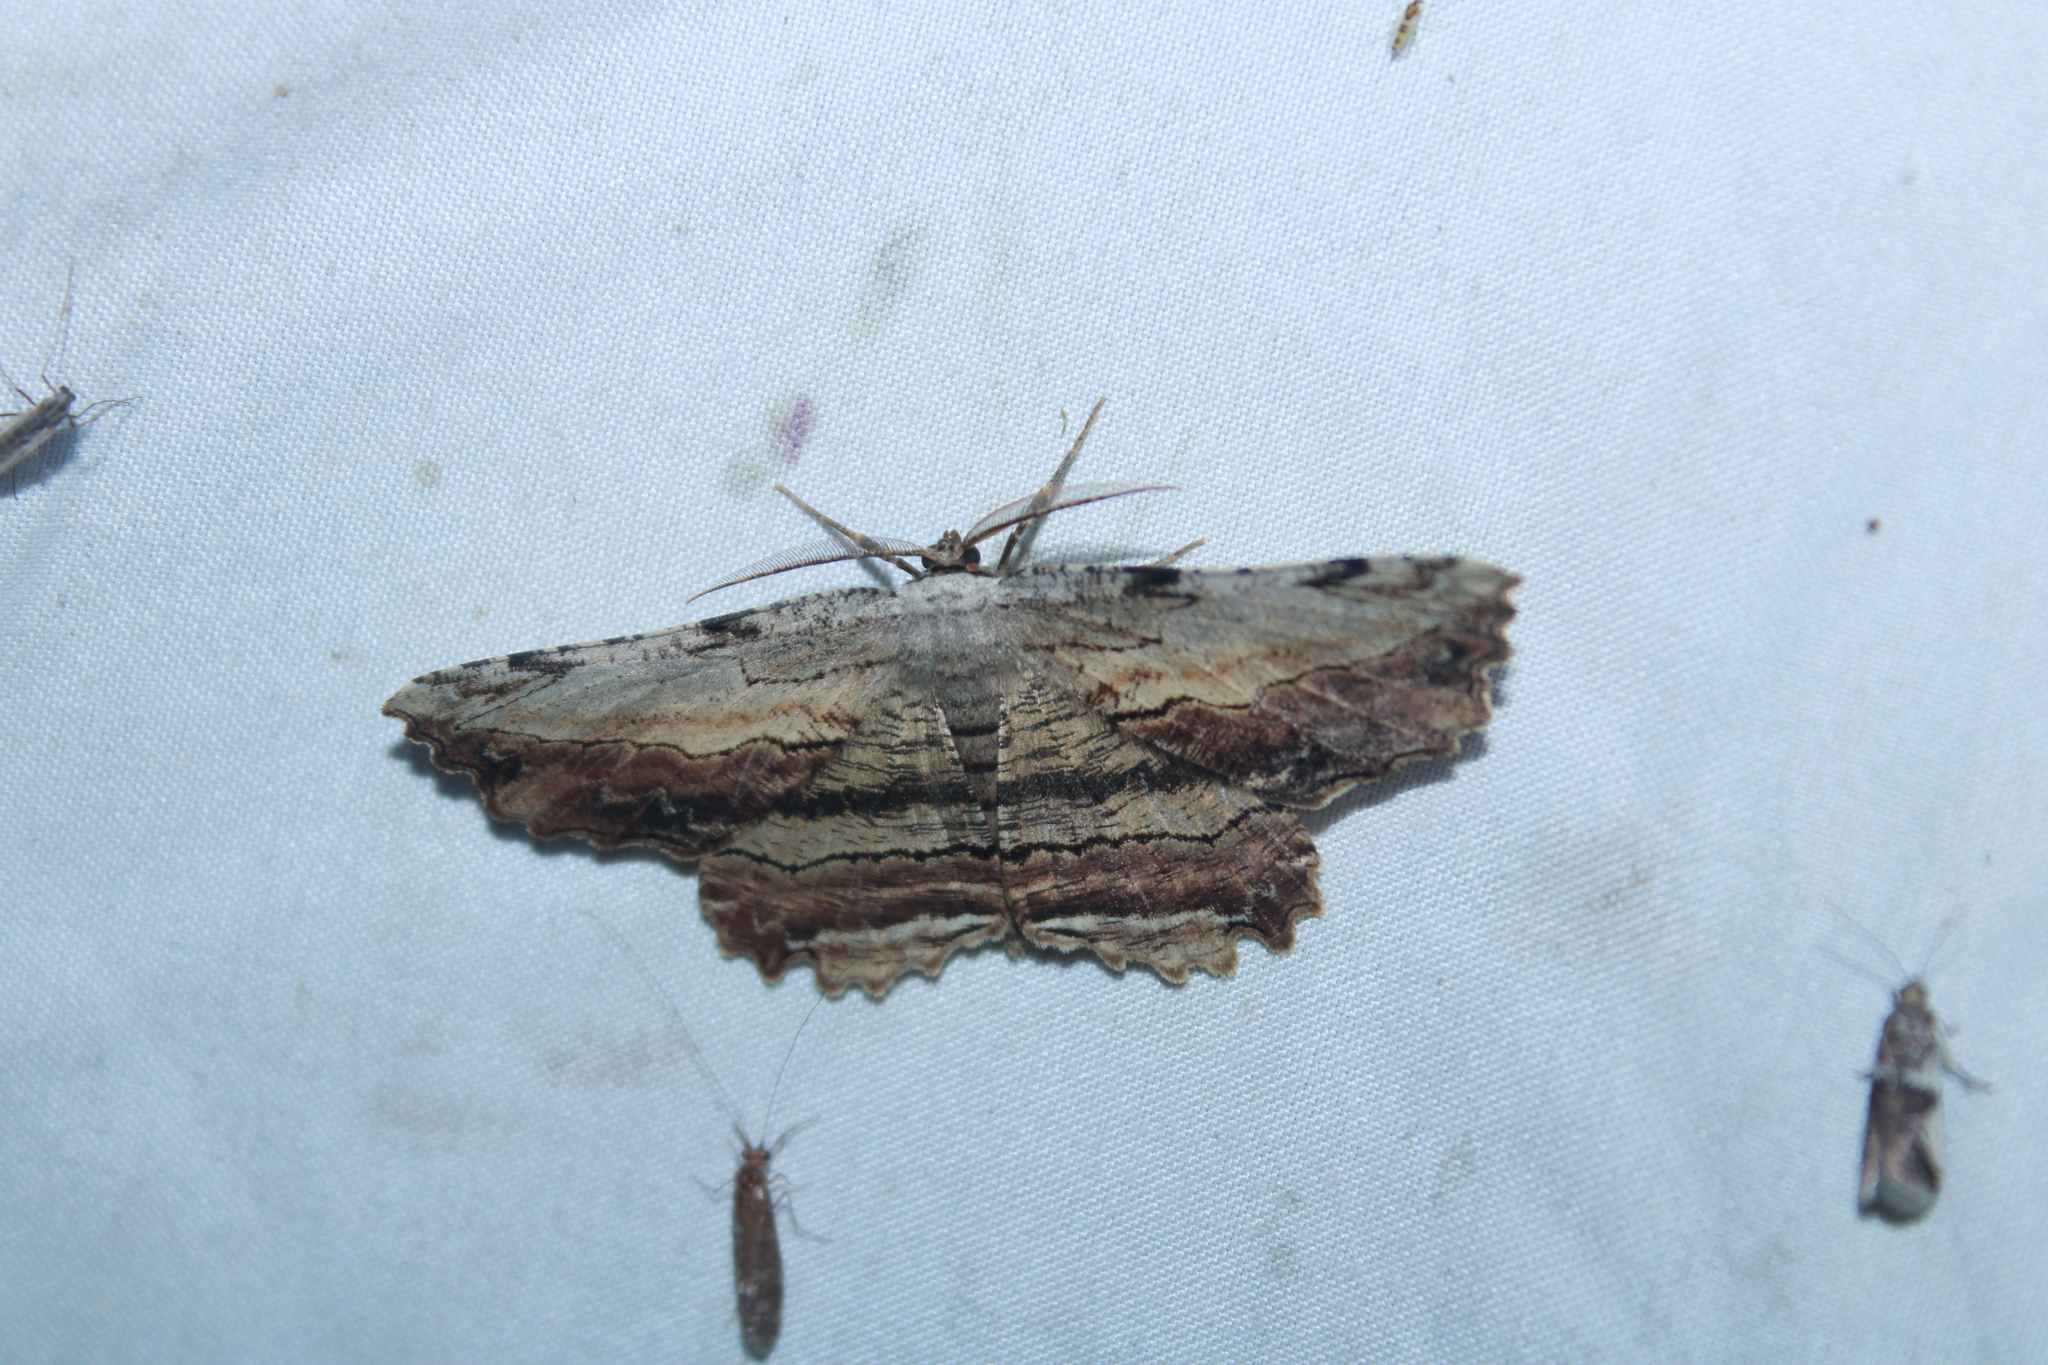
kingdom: Animalia
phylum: Arthropoda
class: Insecta
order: Lepidoptera
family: Geometridae
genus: Lytrosis
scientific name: Lytrosis unitaria
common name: Common lytrosis
